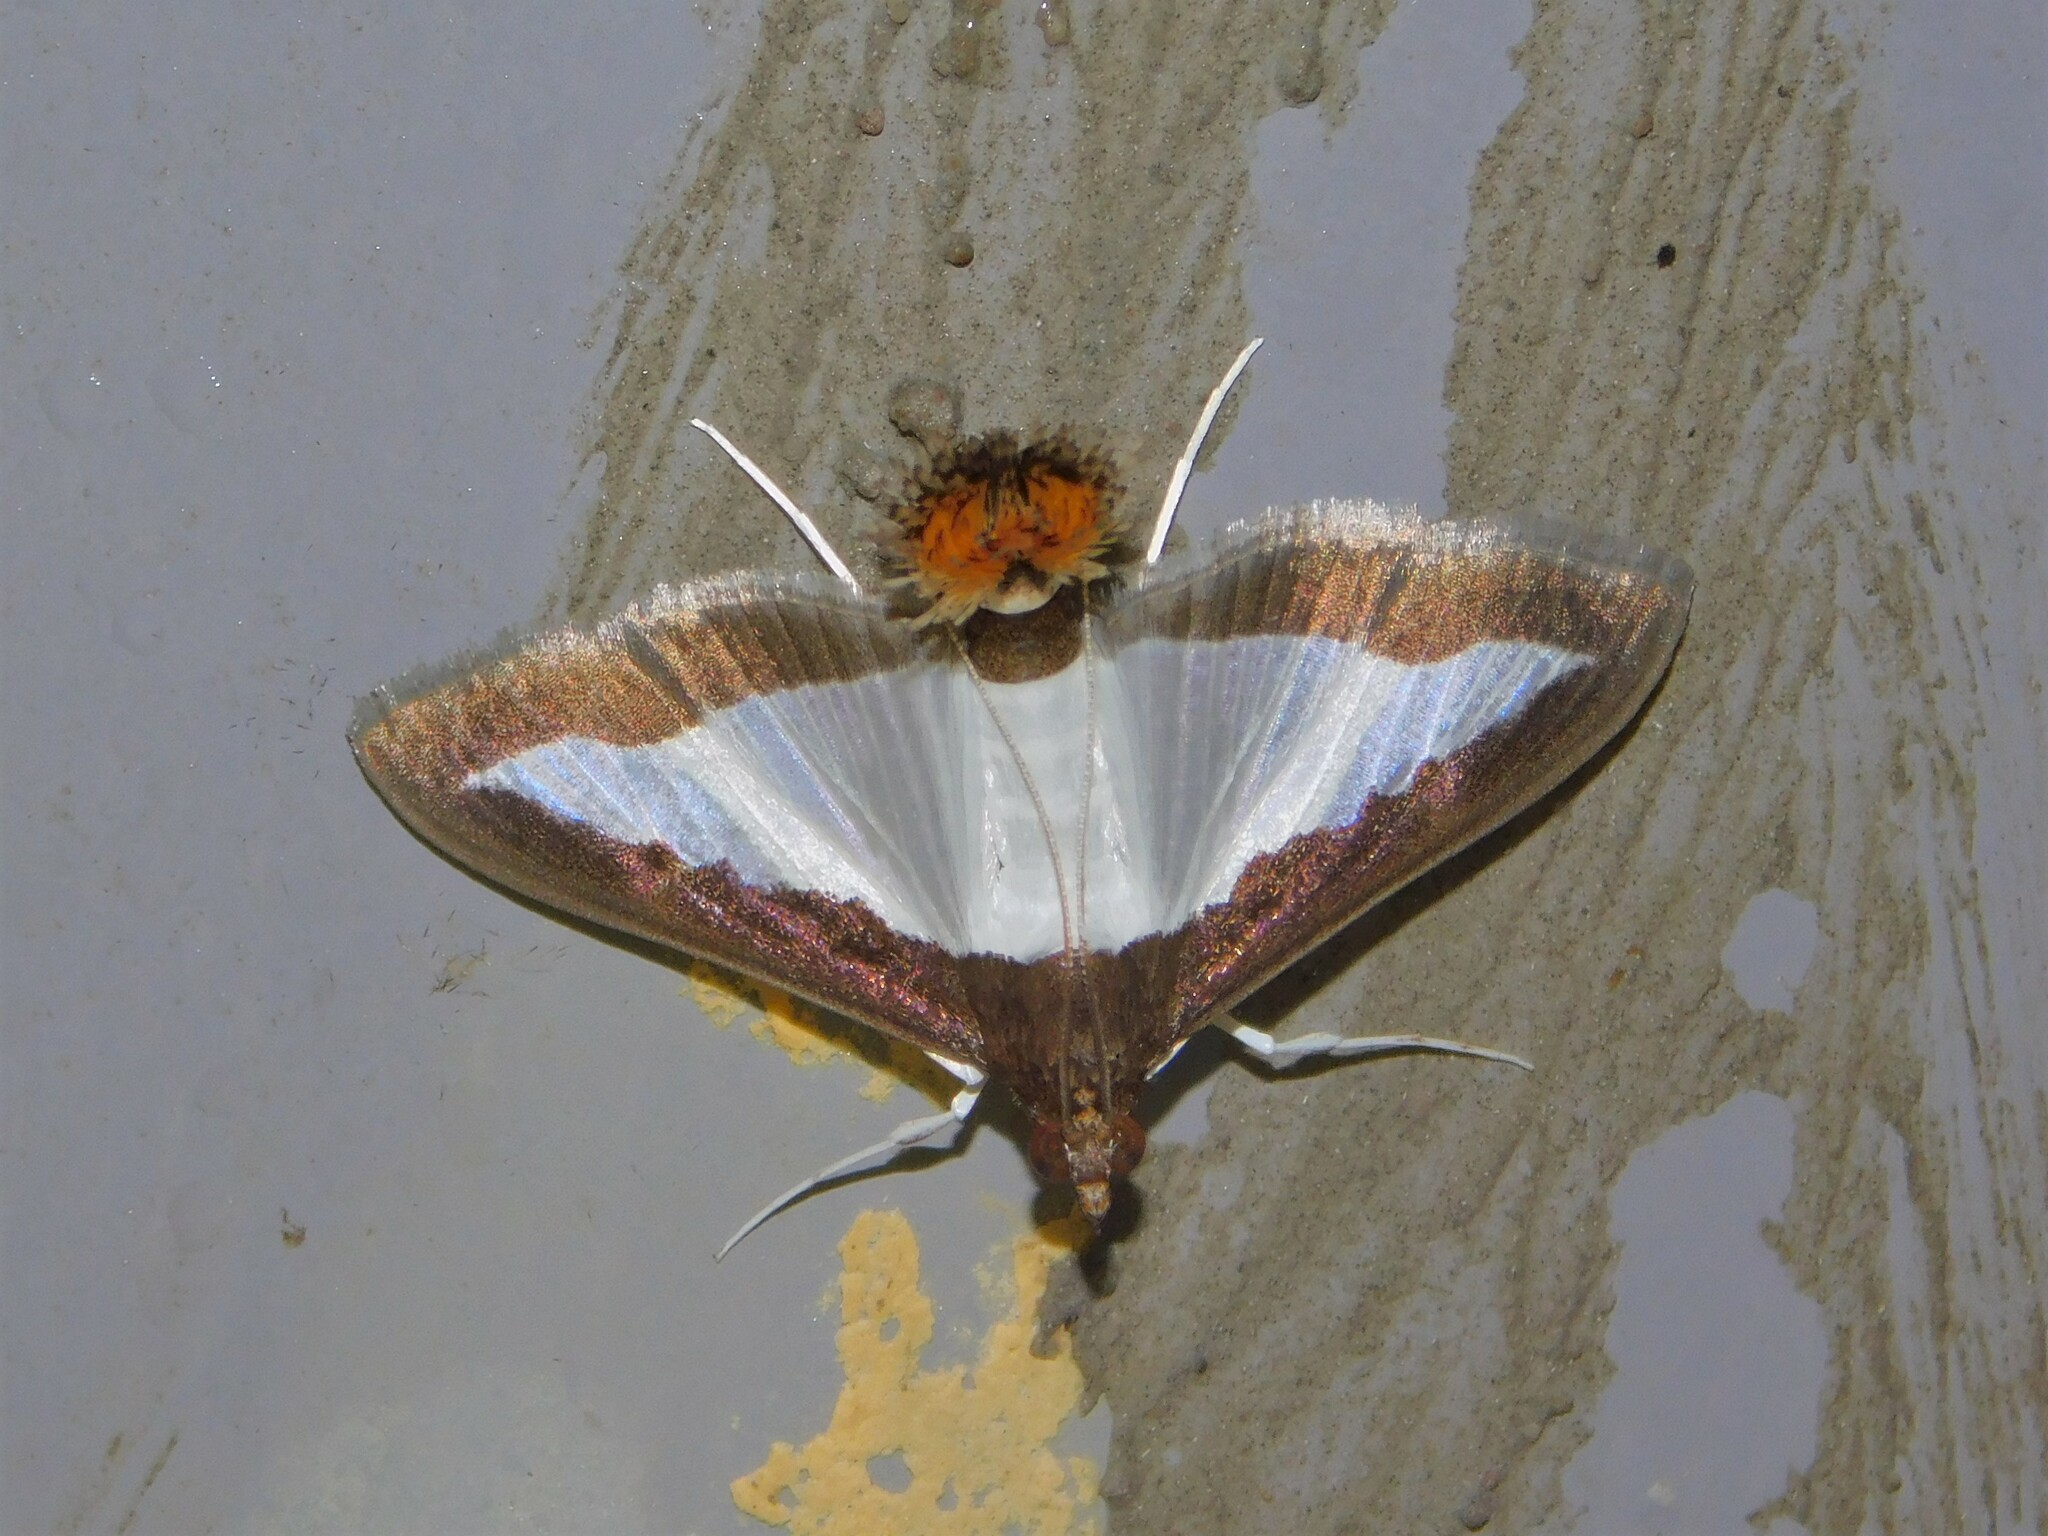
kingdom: Animalia
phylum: Arthropoda
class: Insecta
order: Lepidoptera
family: Crambidae
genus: Diaphania
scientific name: Diaphania indica
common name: Cucumber moth
